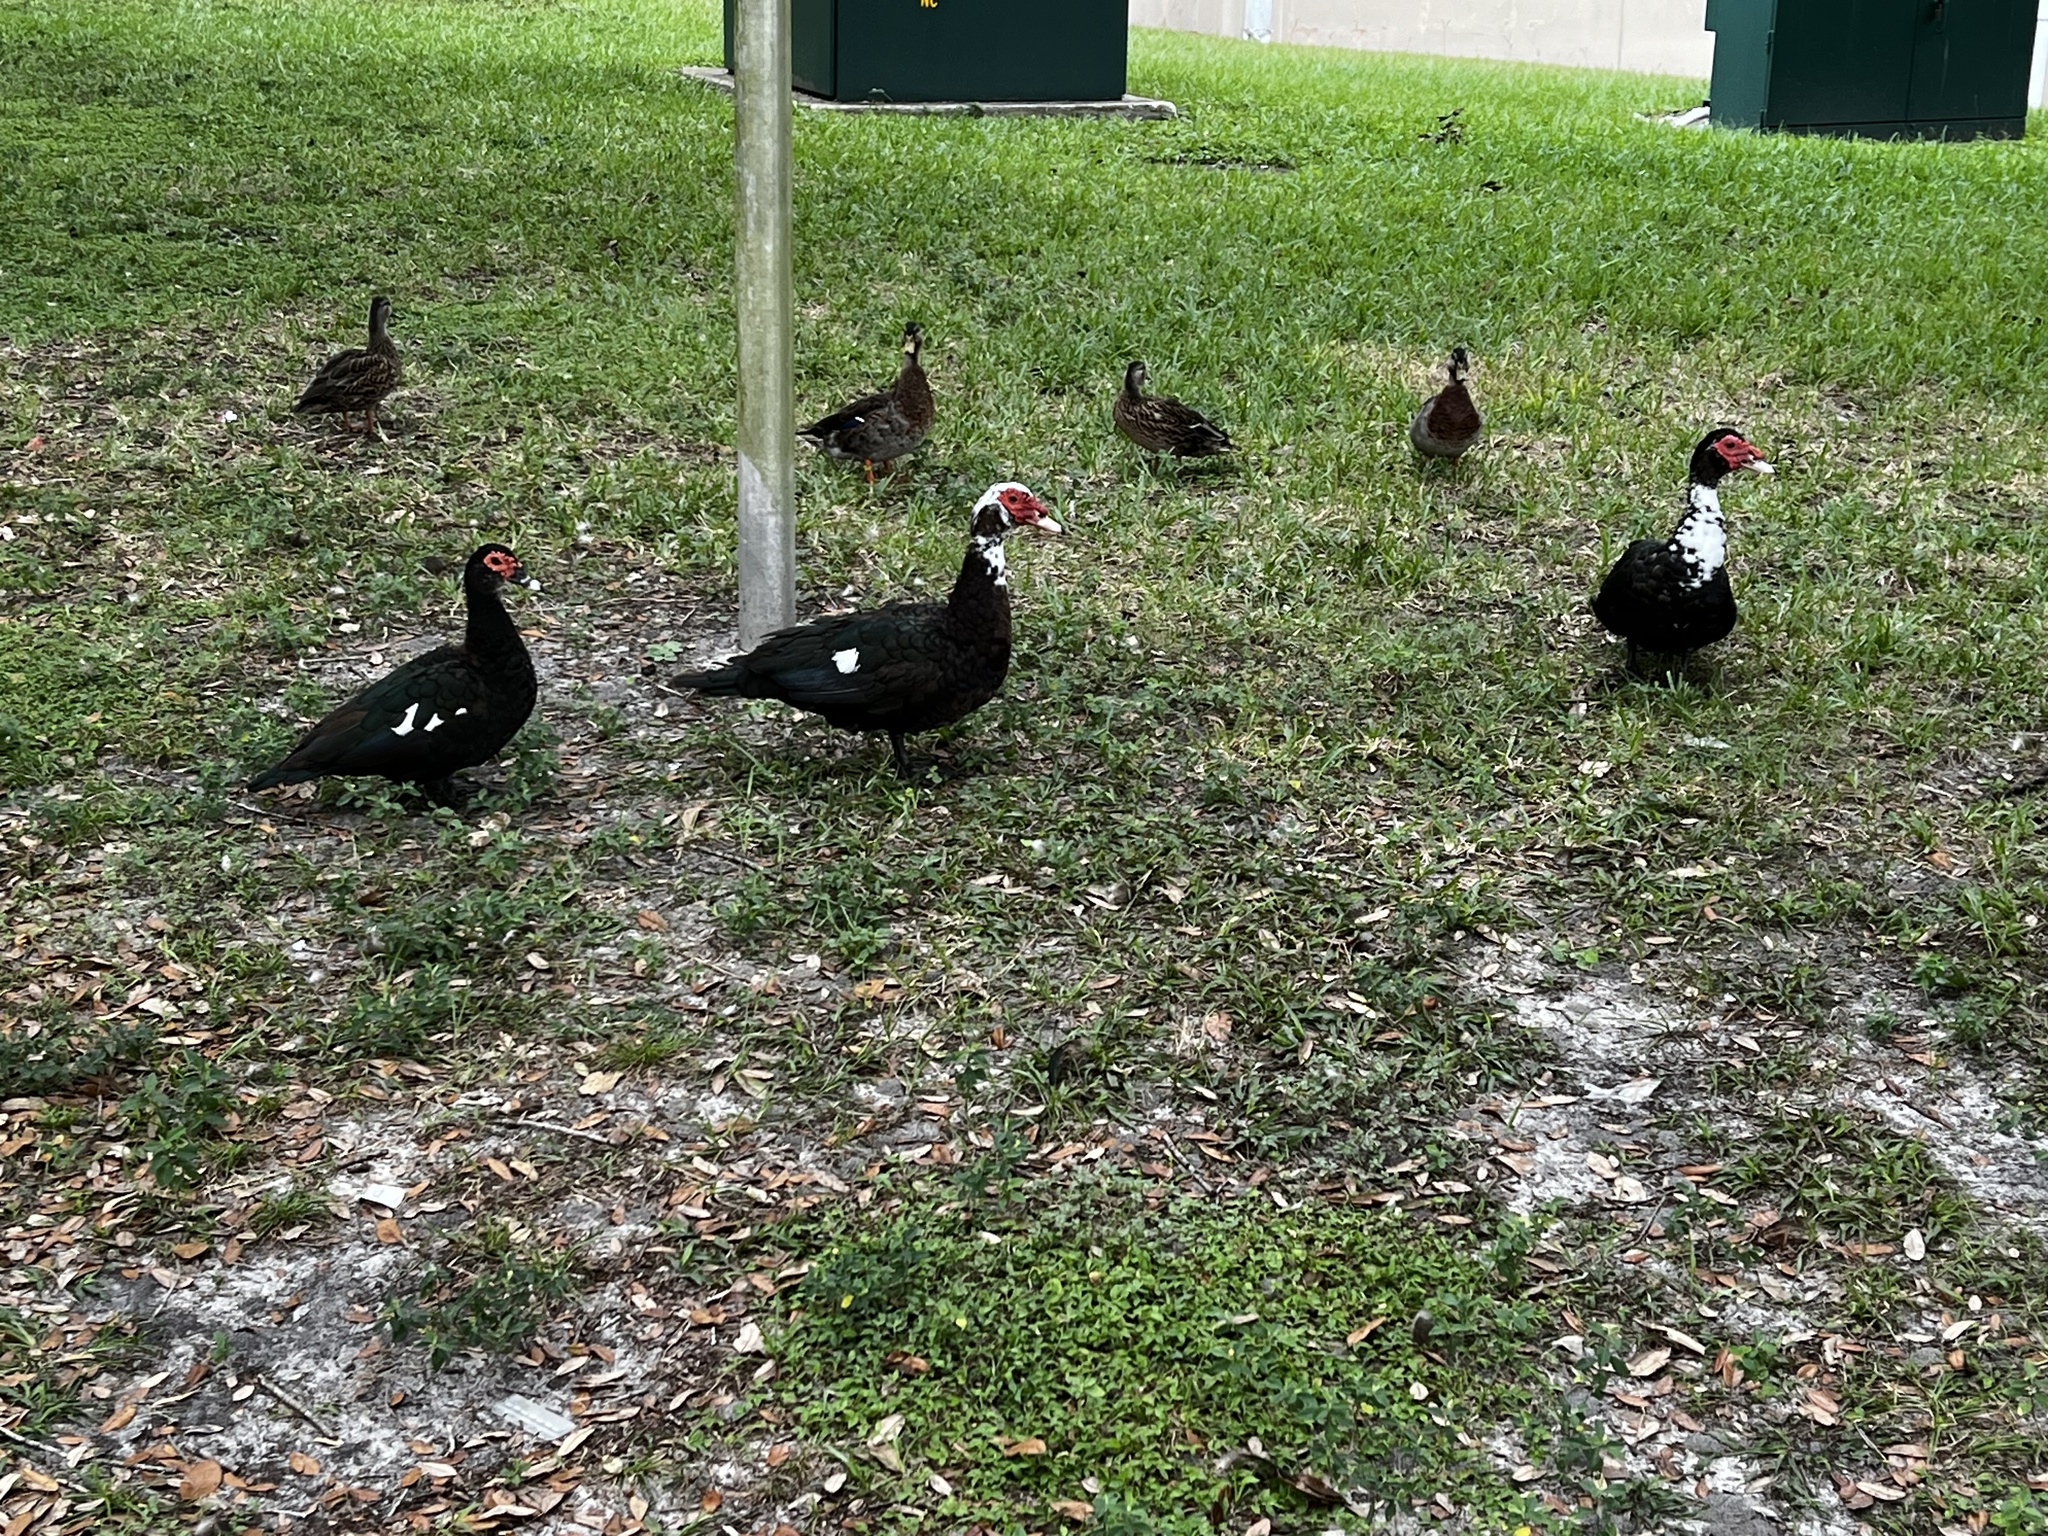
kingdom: Animalia
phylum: Chordata
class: Aves
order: Anseriformes
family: Anatidae
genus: Cairina
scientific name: Cairina moschata
